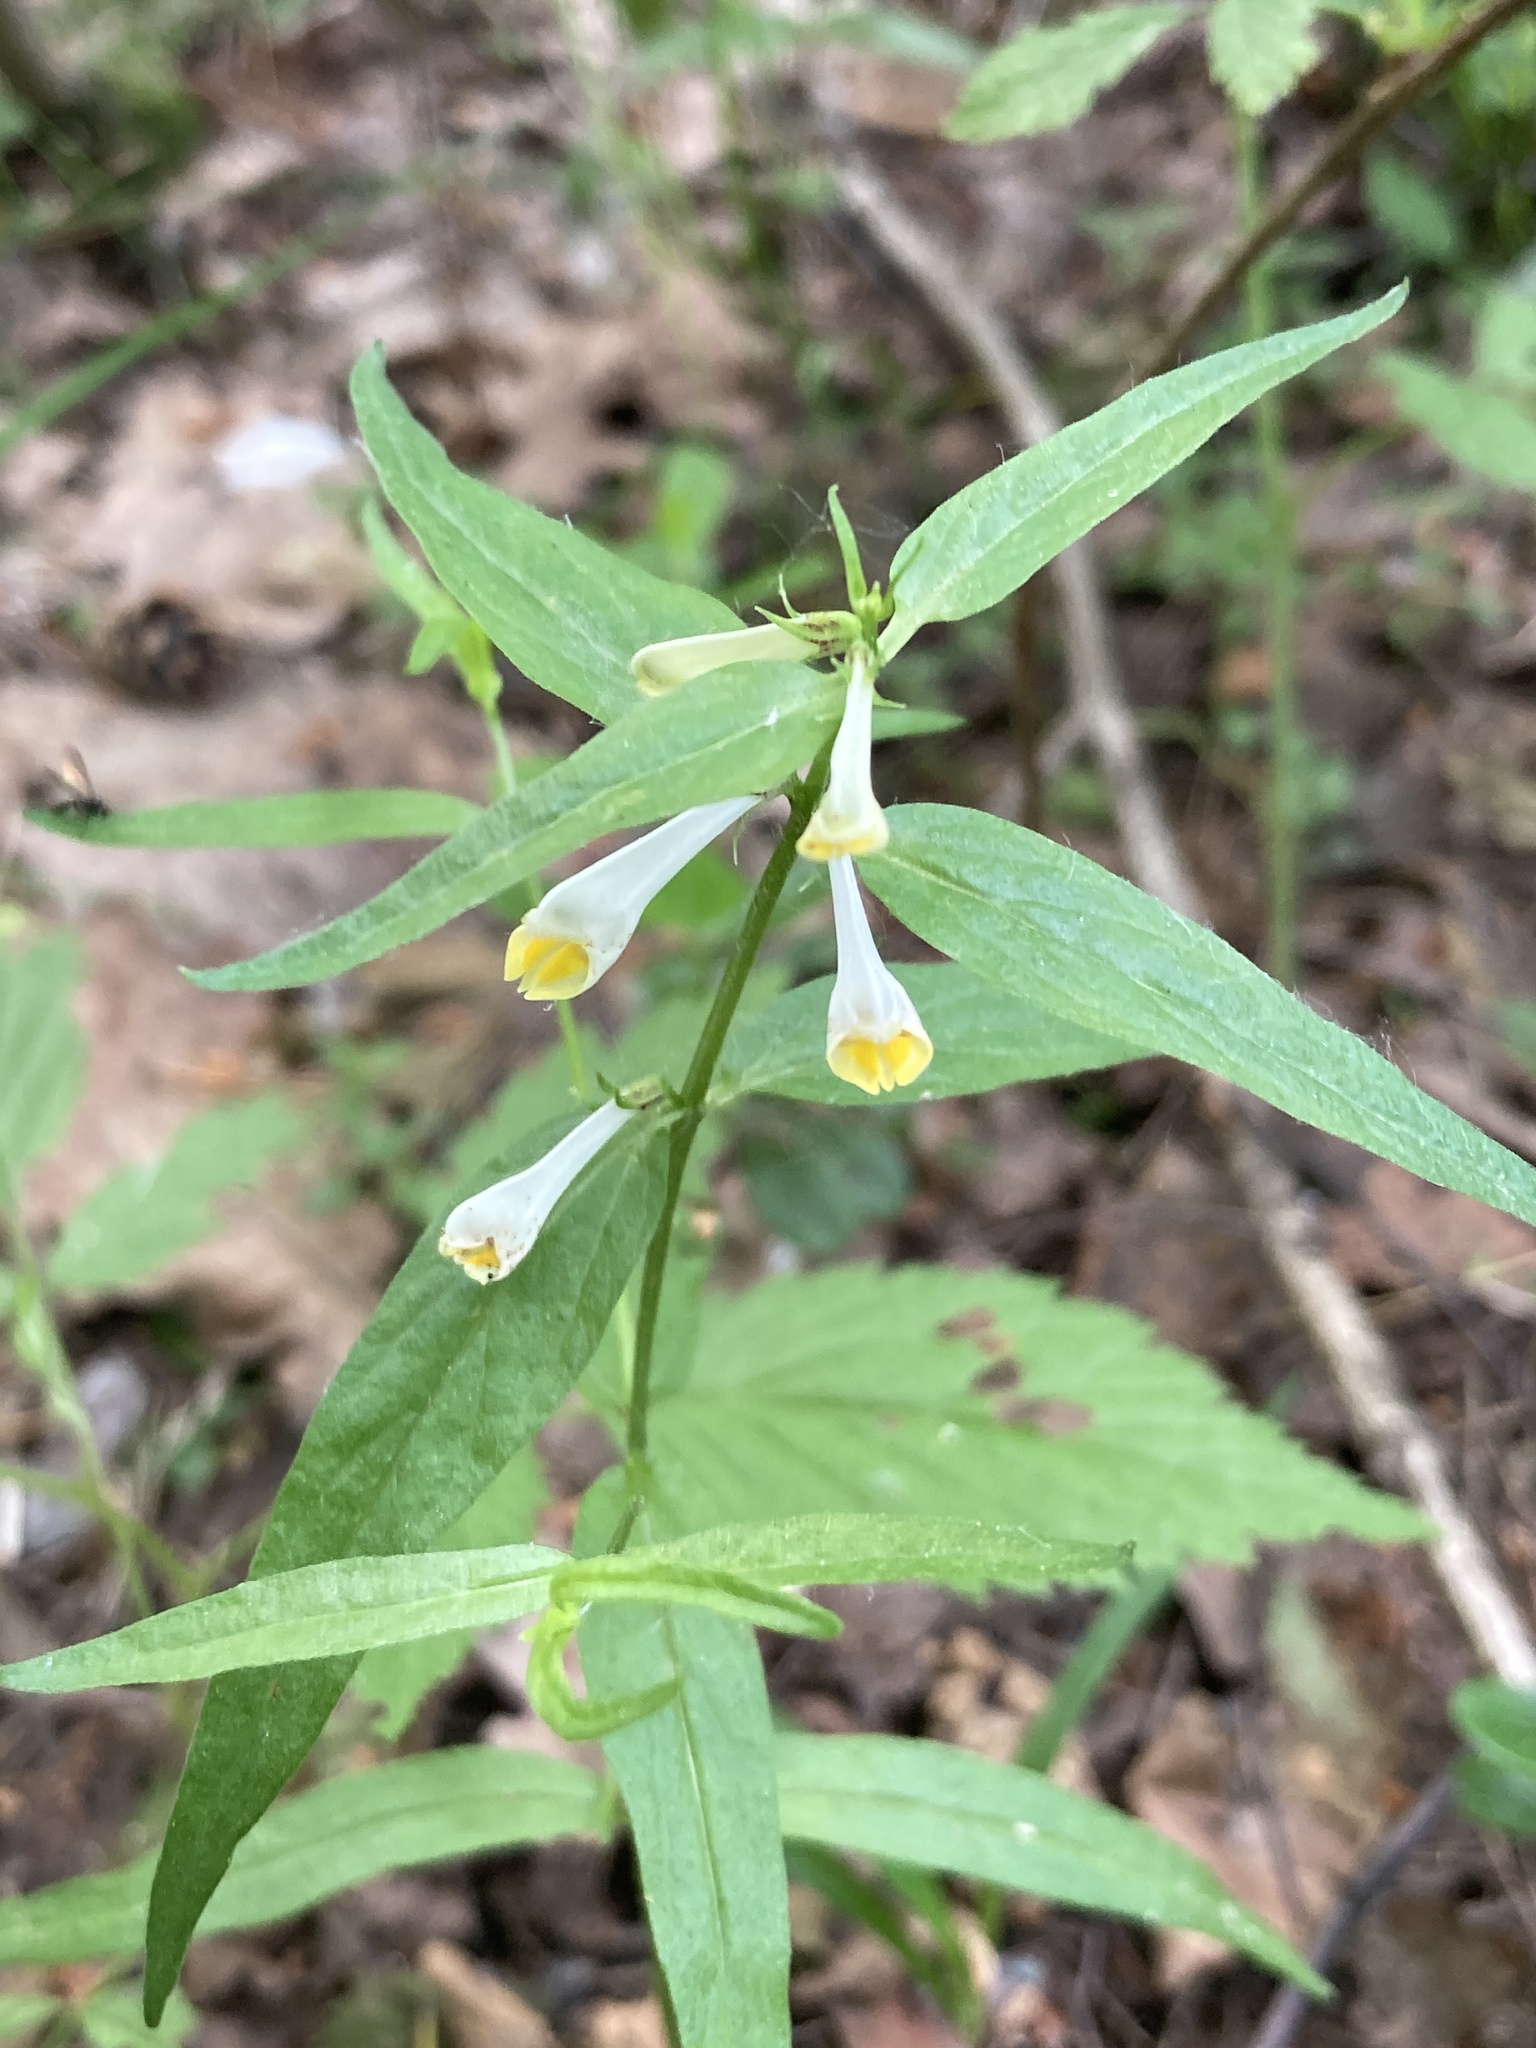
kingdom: Plantae
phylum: Tracheophyta
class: Magnoliopsida
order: Lamiales
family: Orobanchaceae
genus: Melampyrum
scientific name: Melampyrum pratense
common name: Common cow-wheat
